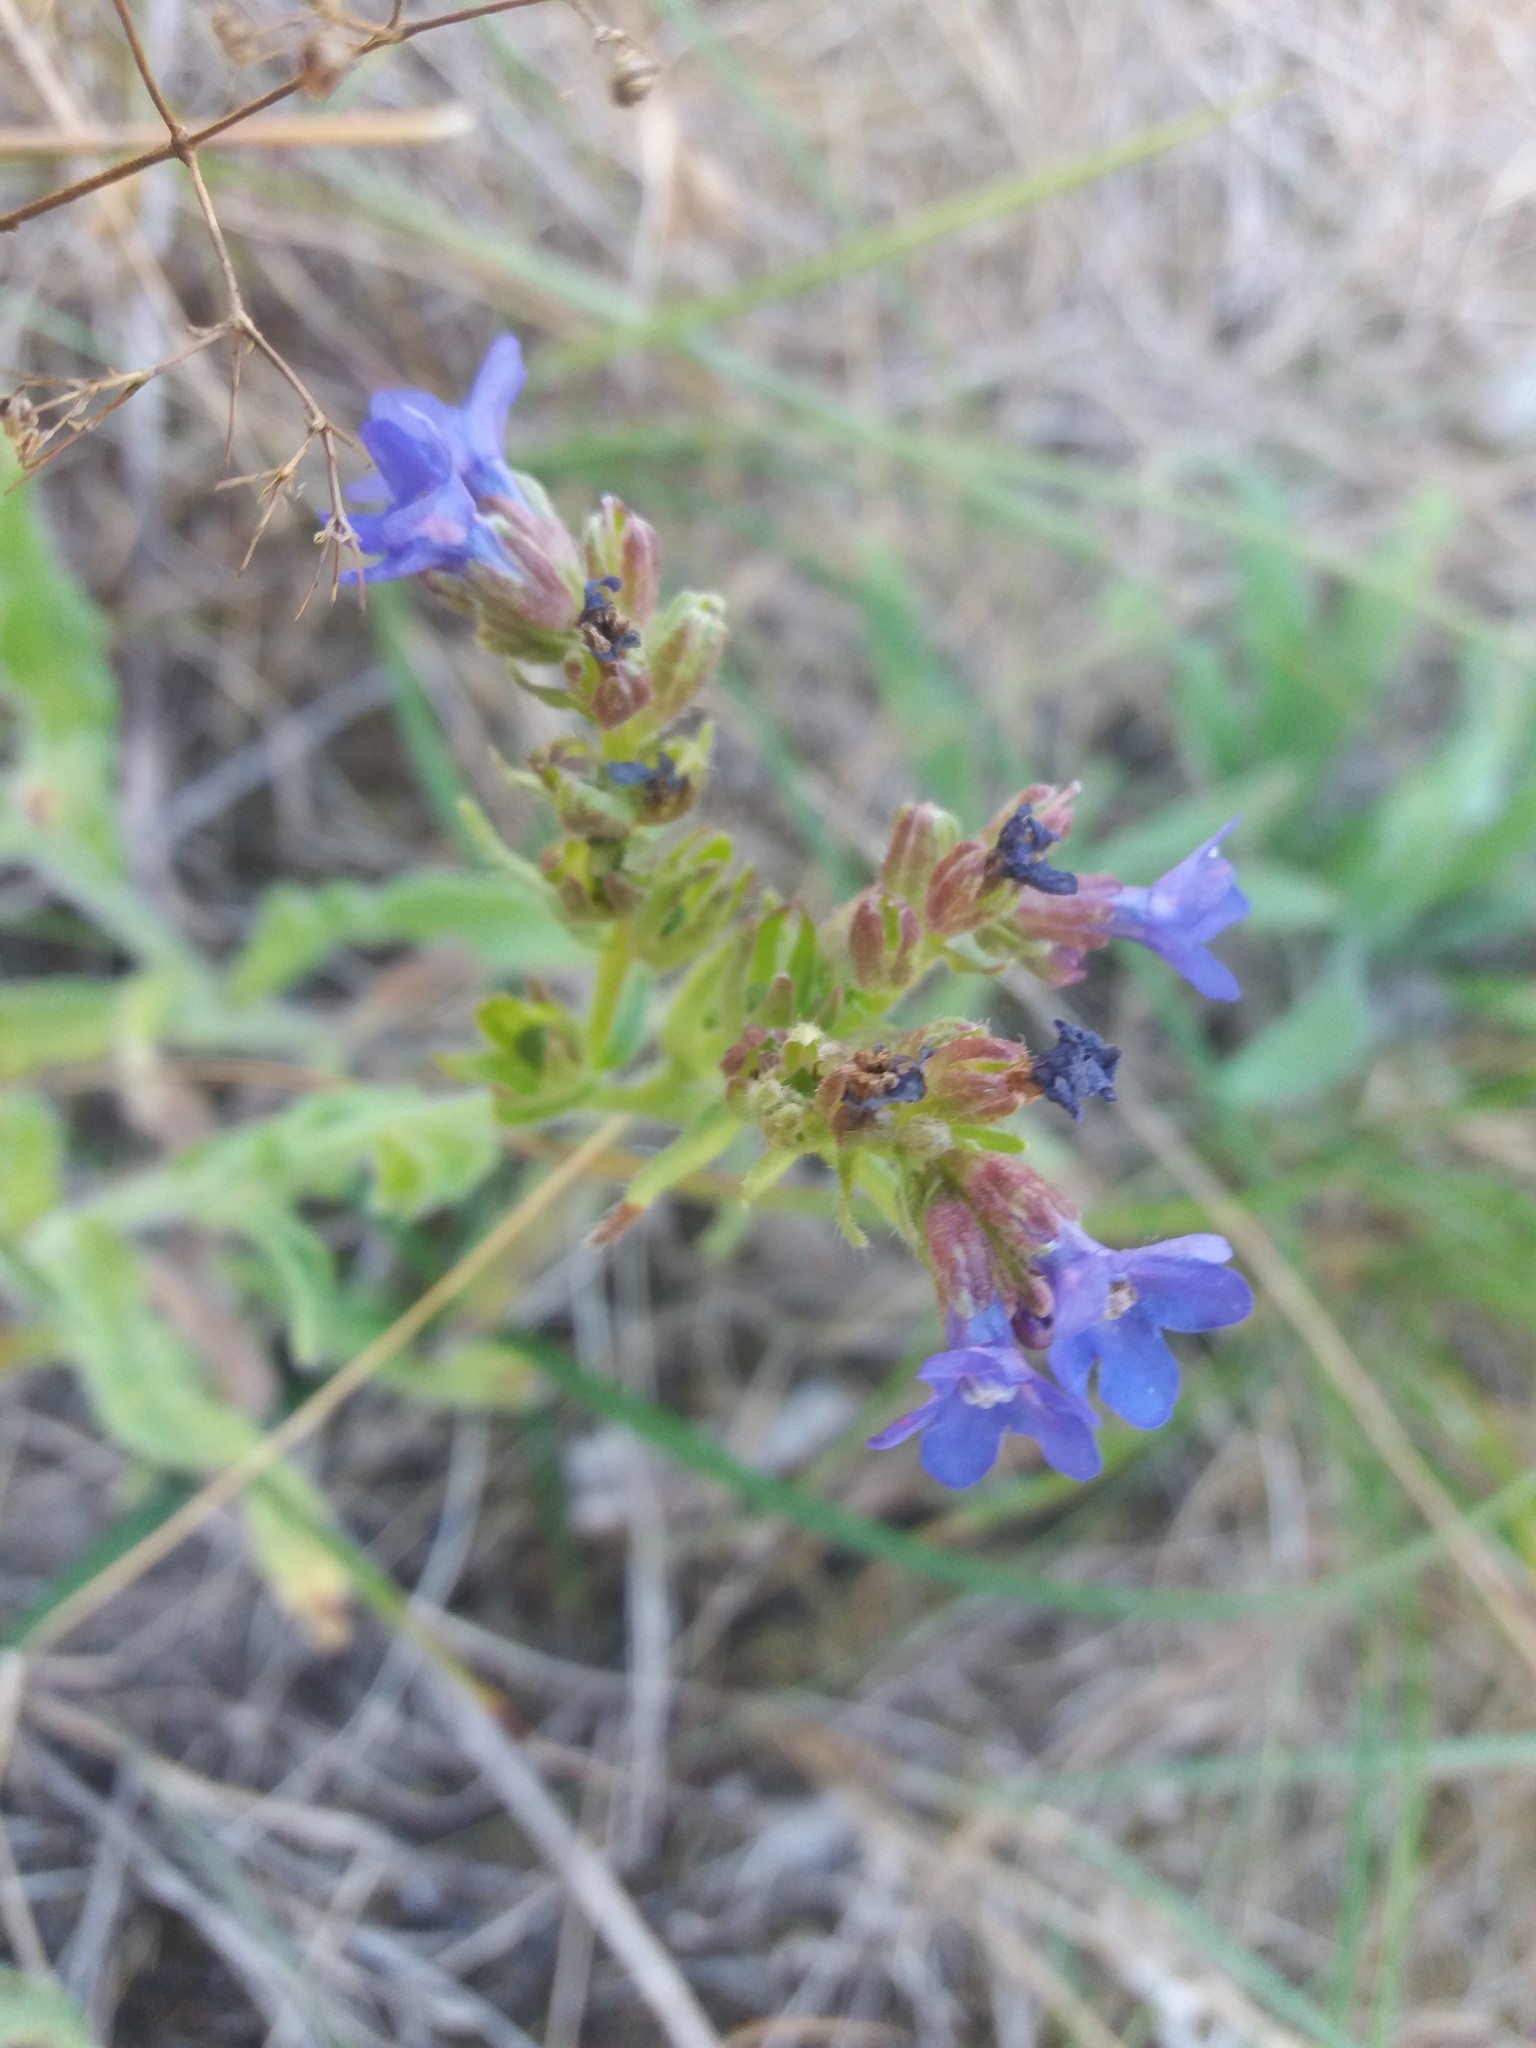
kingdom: Plantae
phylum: Tracheophyta
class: Magnoliopsida
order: Boraginales
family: Boraginaceae
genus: Anchusa
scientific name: Anchusa officinalis
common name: Alkanet
